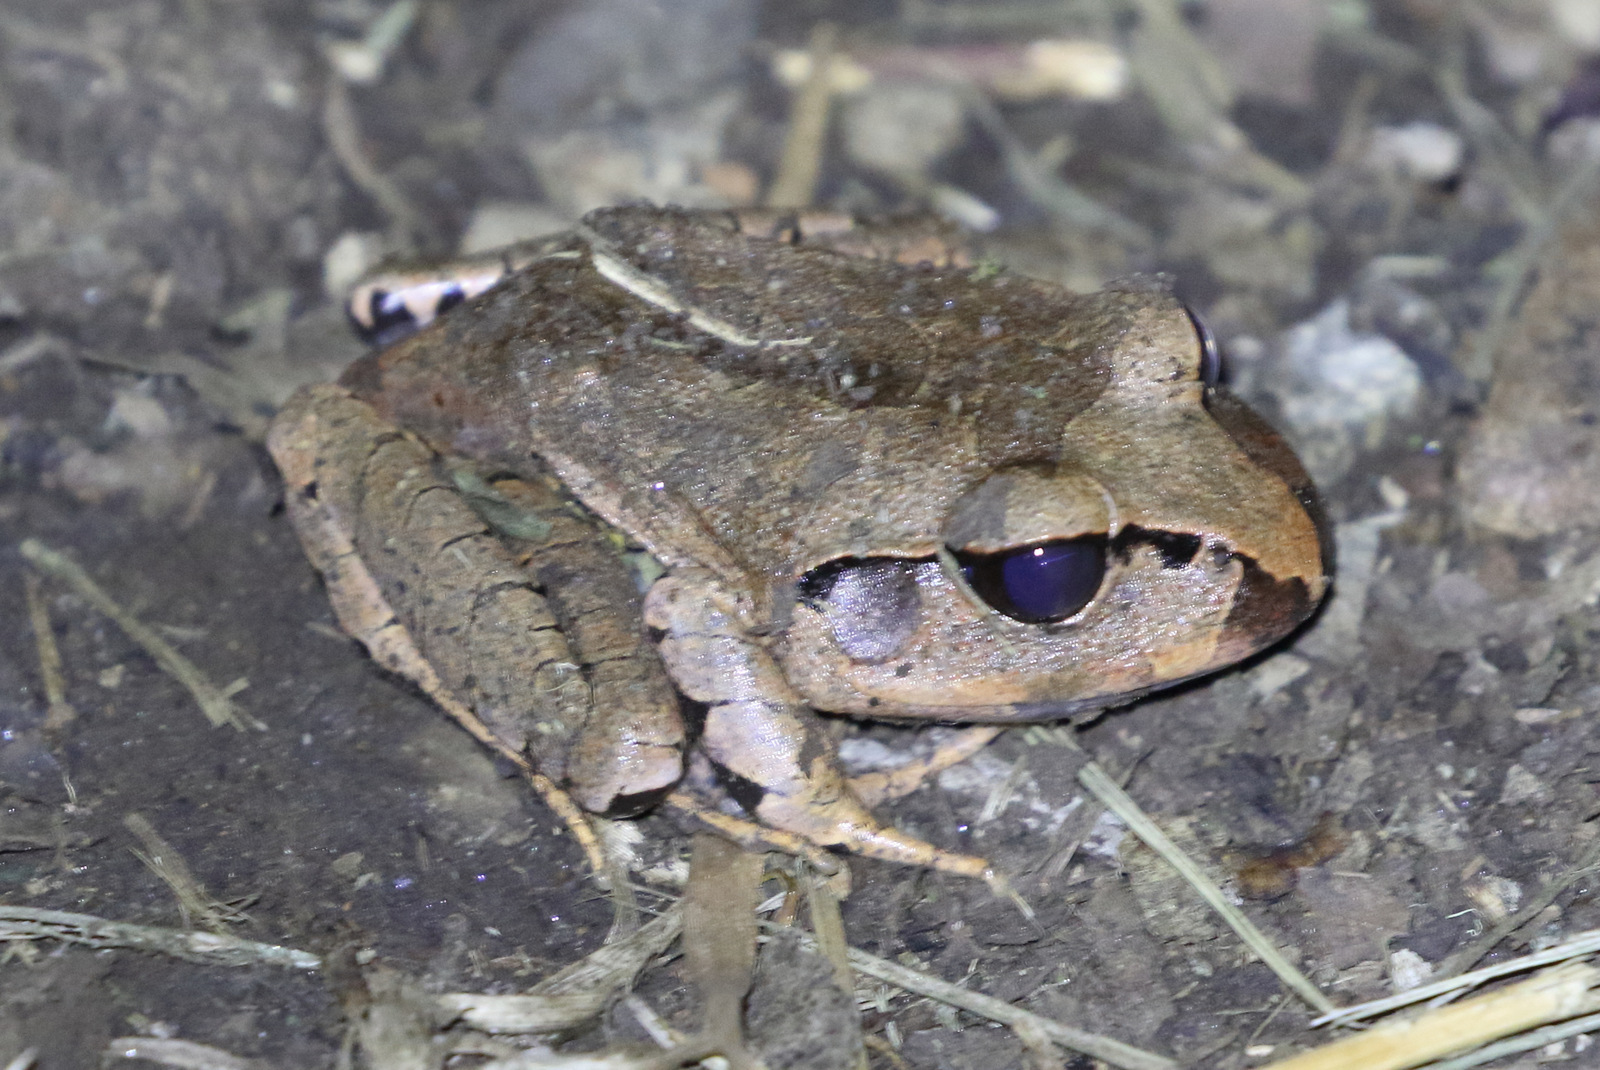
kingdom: Animalia
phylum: Chordata
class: Amphibia
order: Anura
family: Myobatrachidae
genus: Mixophyes
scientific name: Mixophyes fasciolatus
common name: Great barred river-frog
